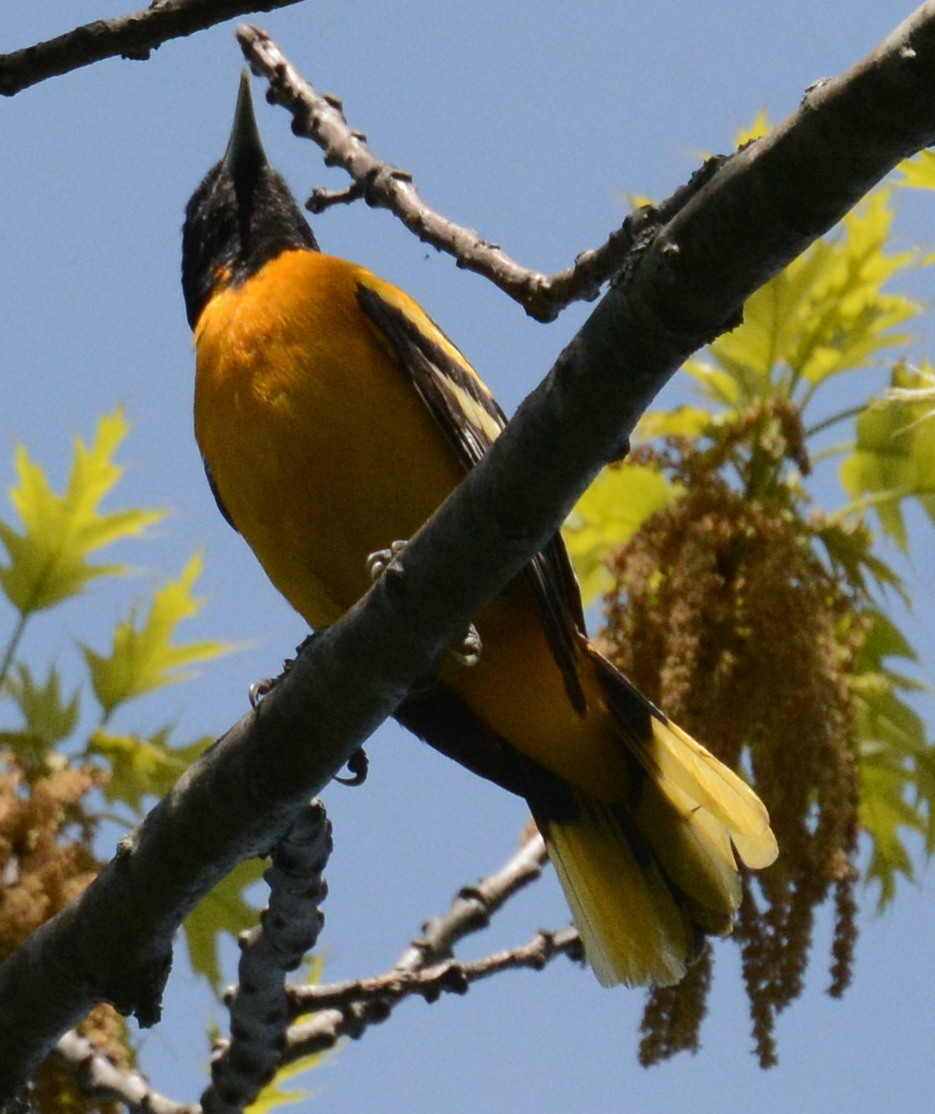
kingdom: Animalia
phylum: Chordata
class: Aves
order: Passeriformes
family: Icteridae
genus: Icterus
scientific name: Icterus galbula
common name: Baltimore oriole
